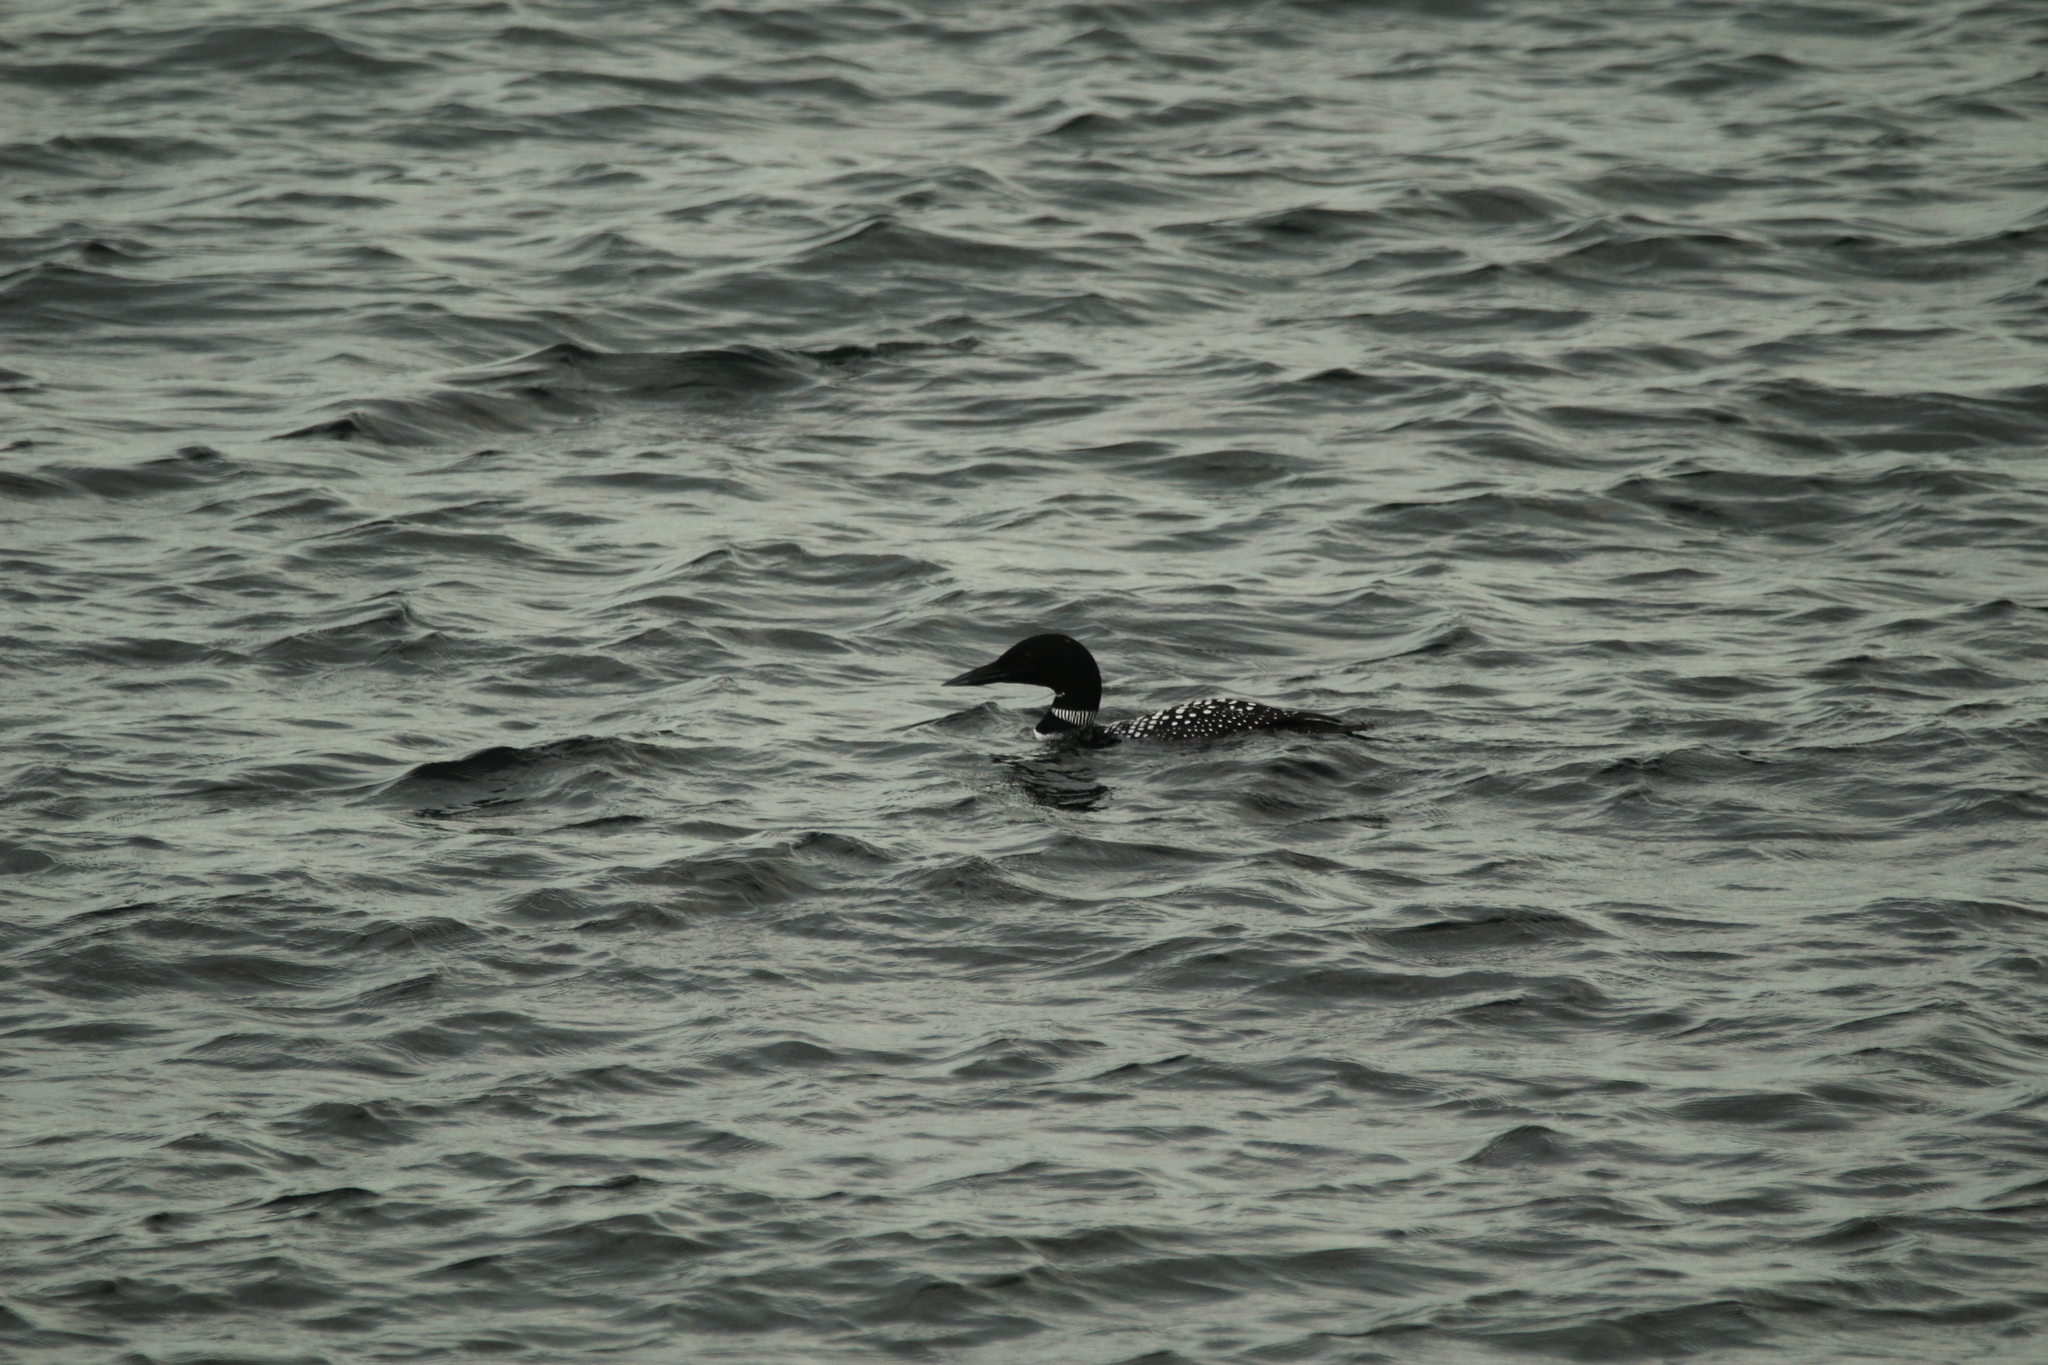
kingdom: Animalia
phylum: Chordata
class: Aves
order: Gaviiformes
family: Gaviidae
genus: Gavia
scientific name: Gavia immer
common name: Common loon
